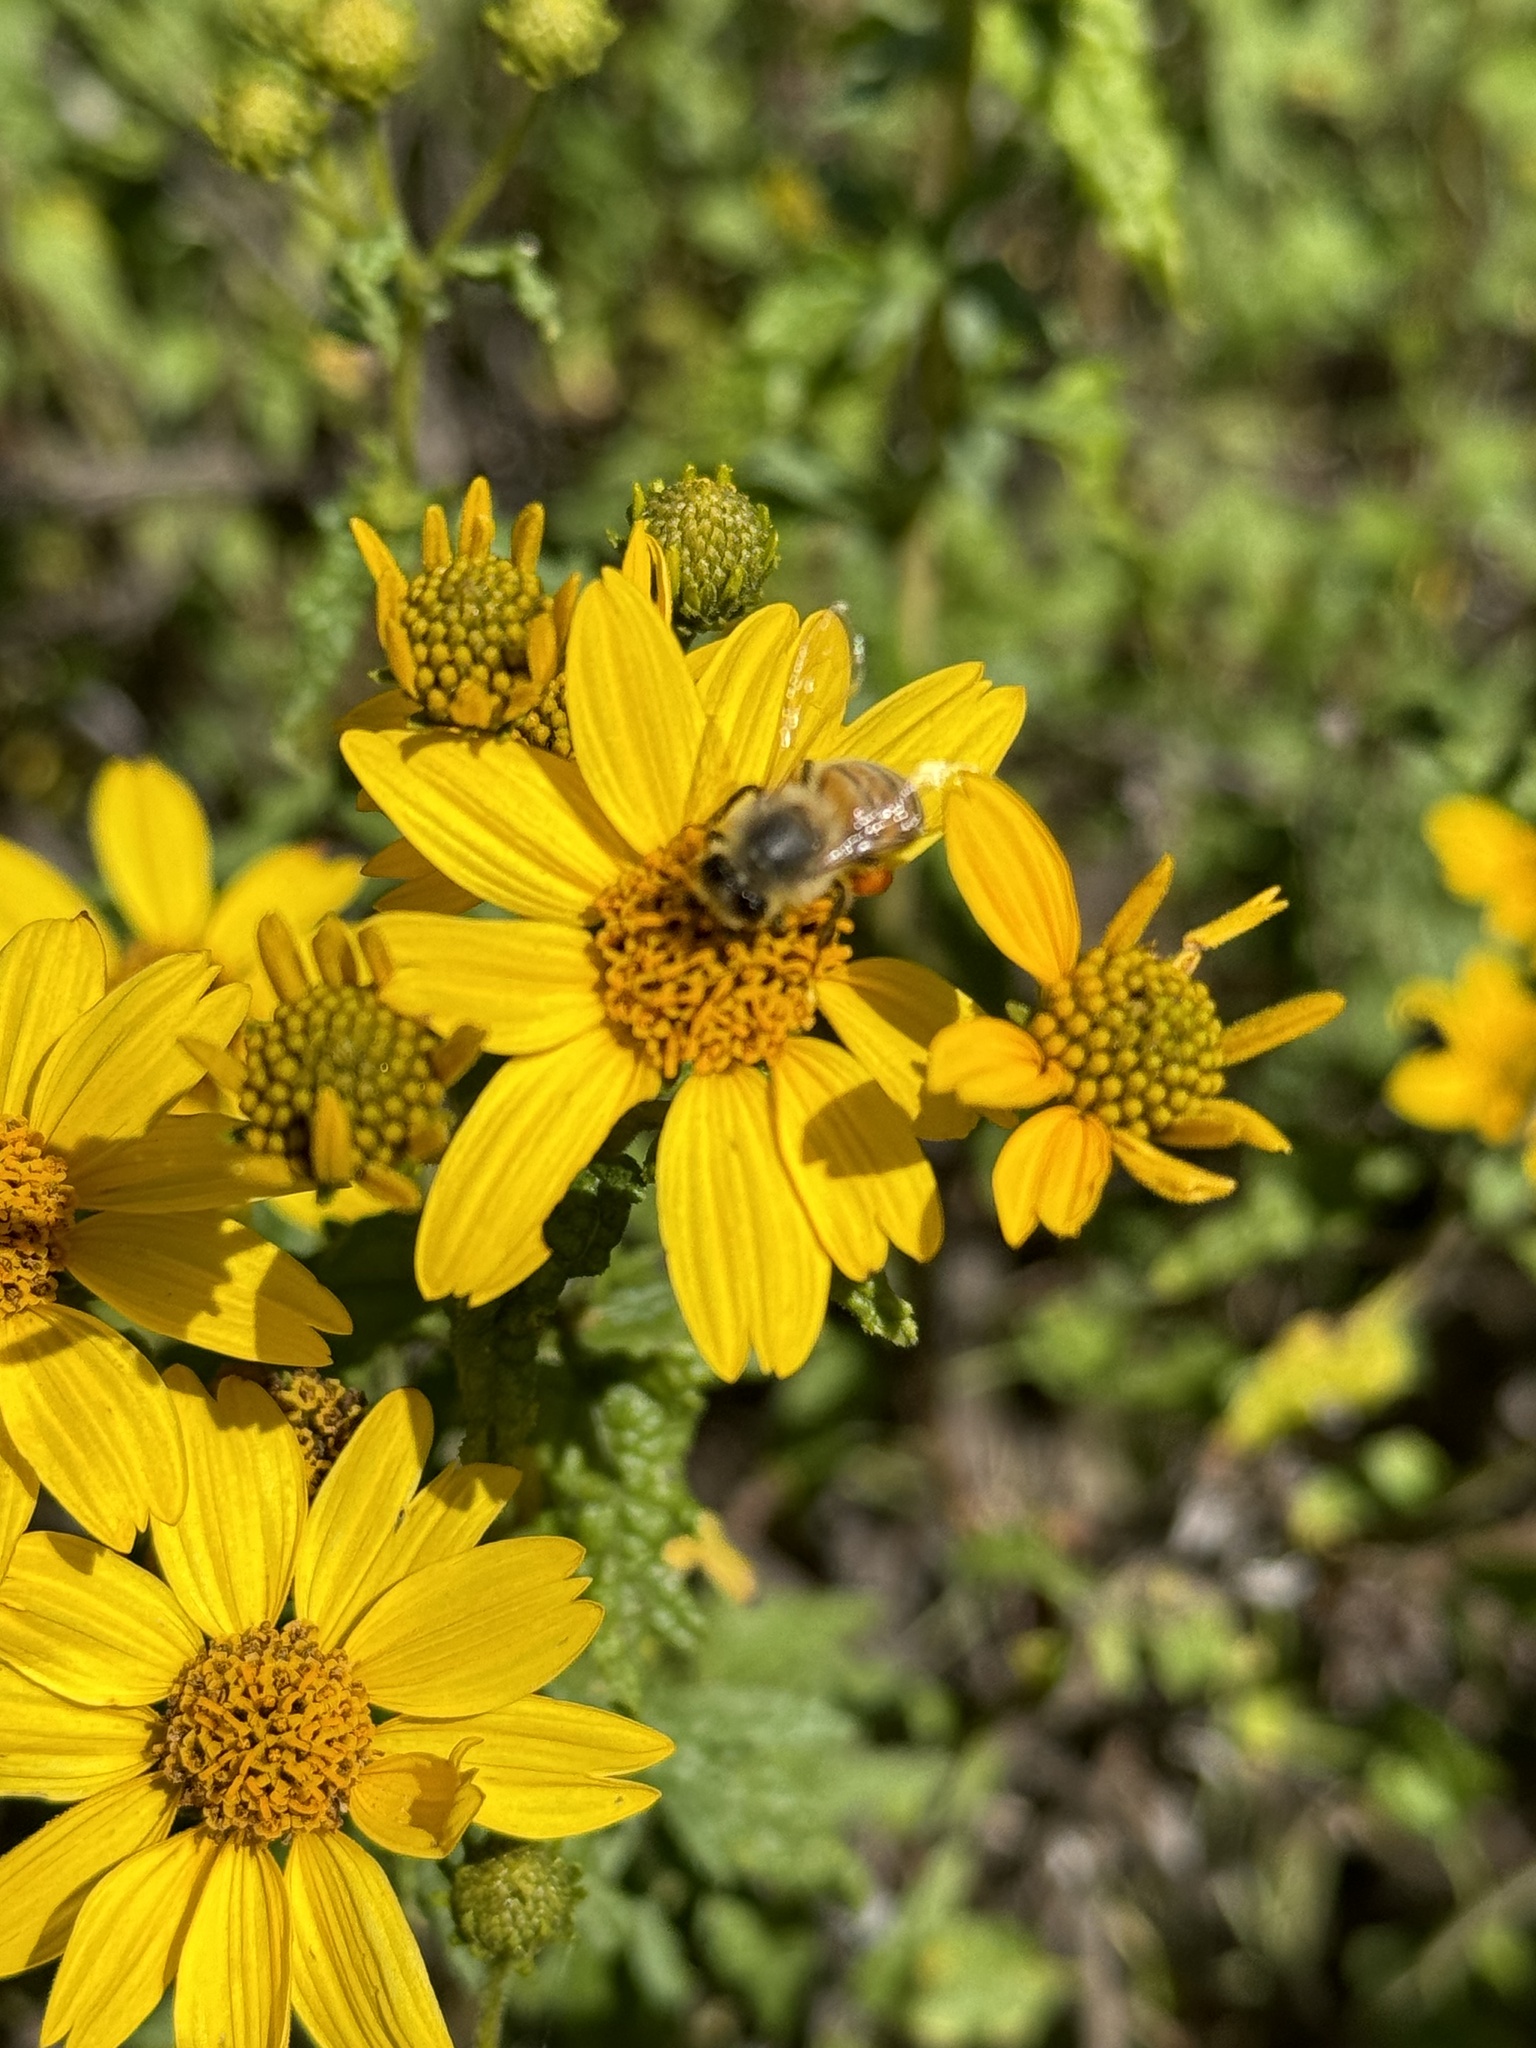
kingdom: Animalia
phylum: Arthropoda
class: Insecta
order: Hymenoptera
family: Apidae
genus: Apis
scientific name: Apis mellifera
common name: Honey bee
